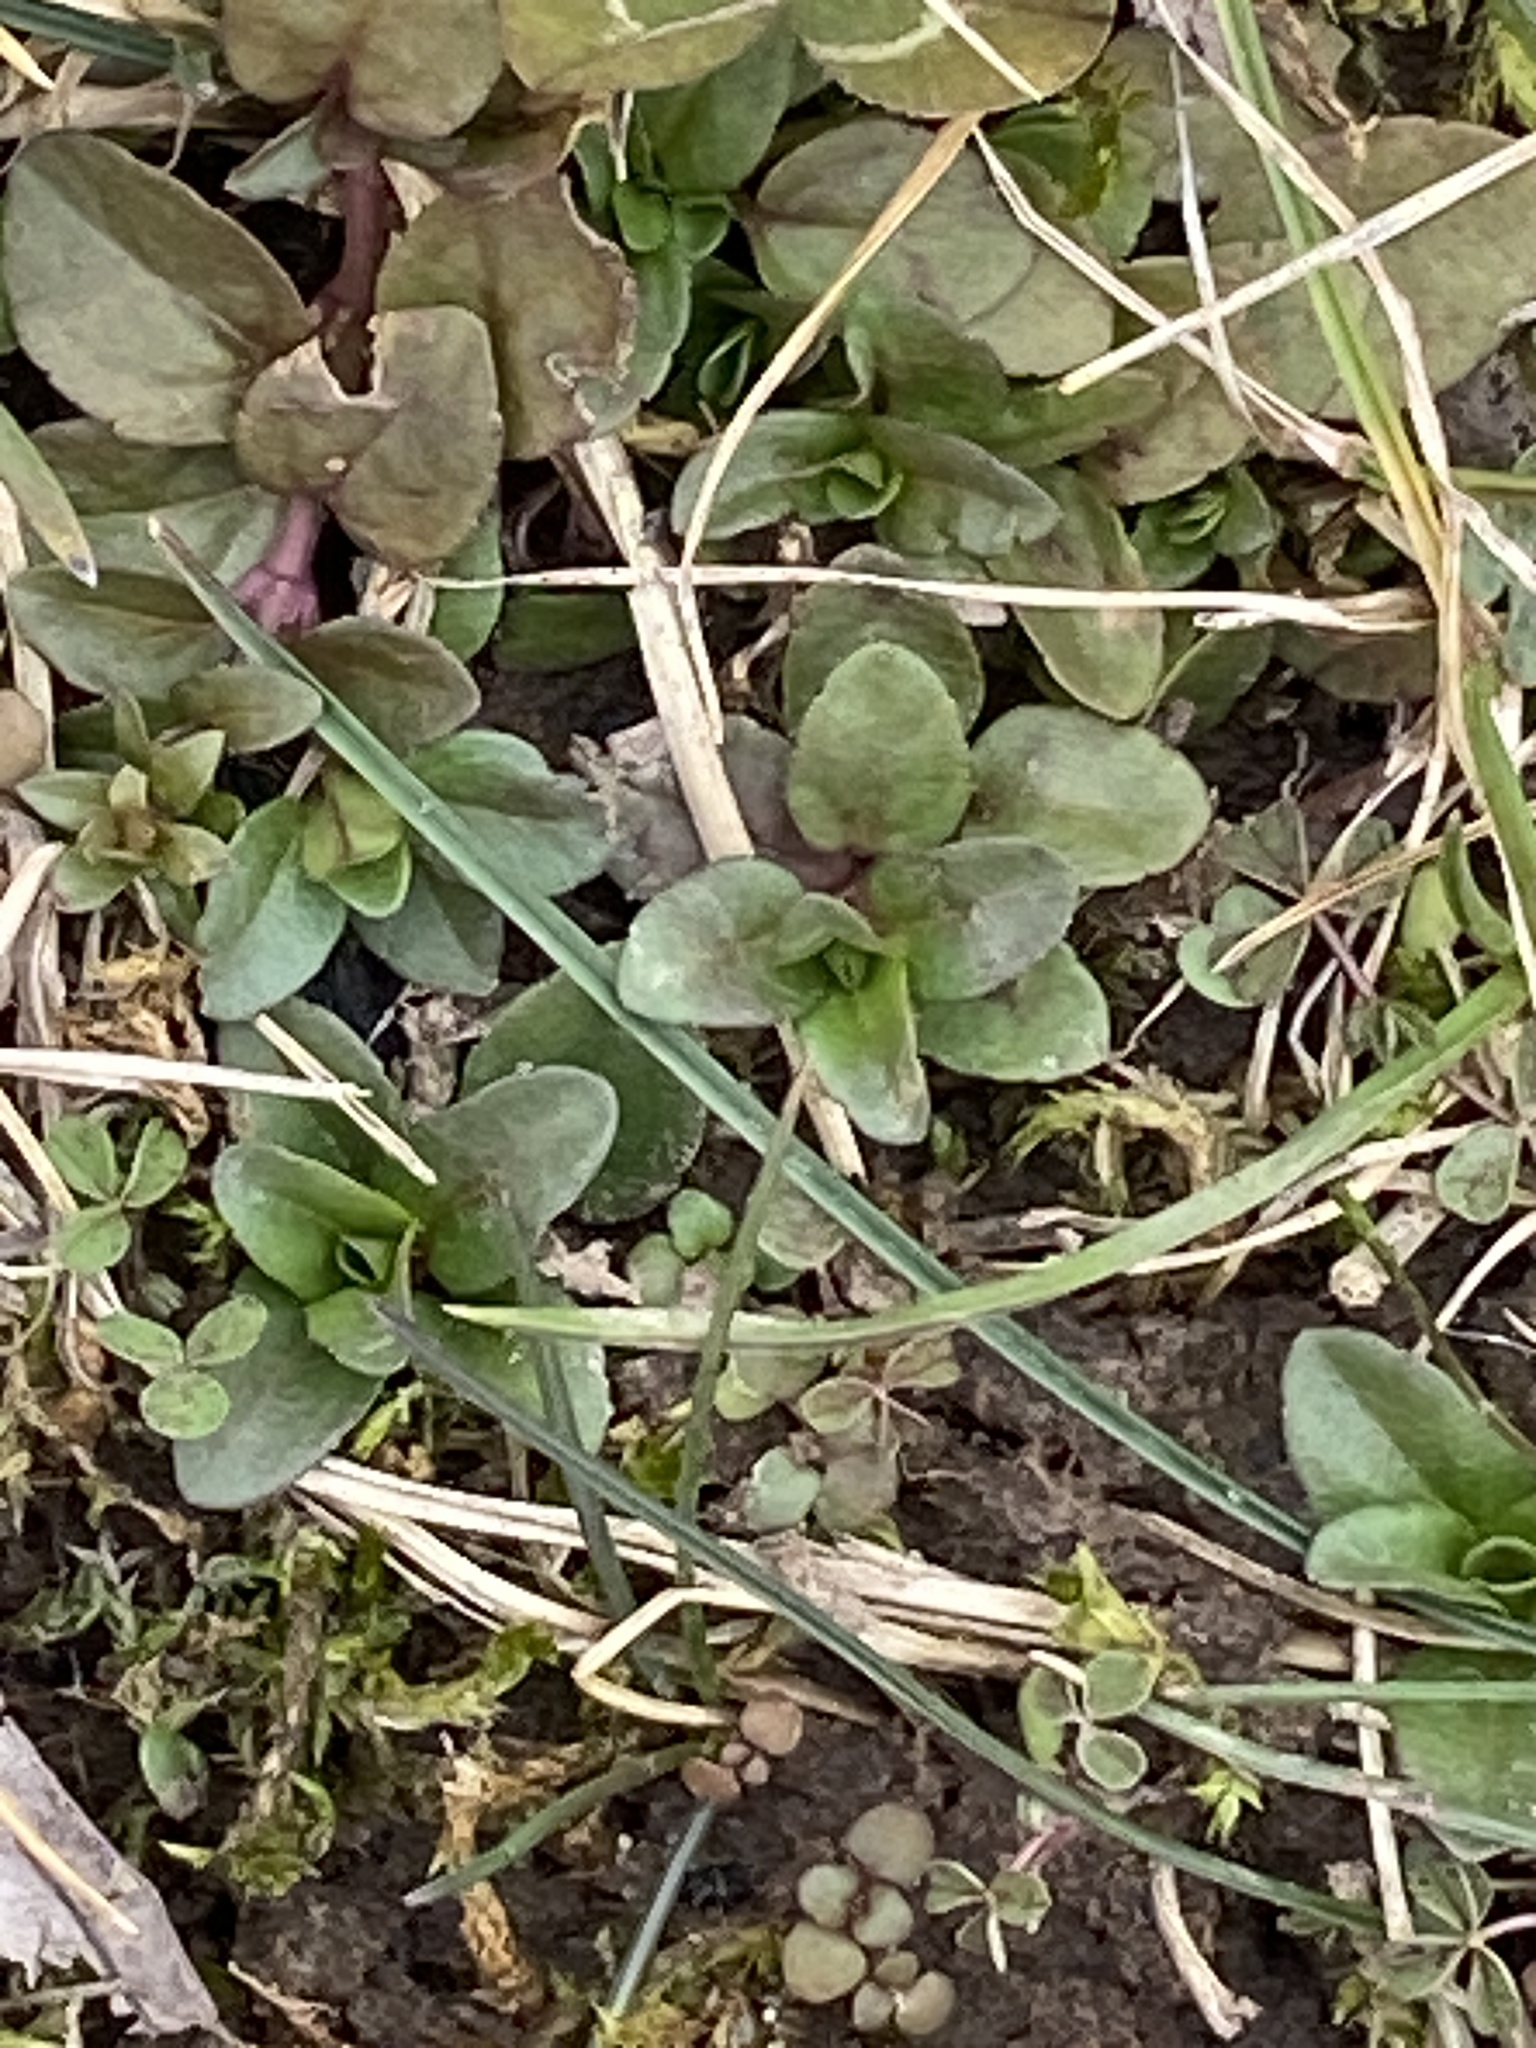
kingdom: Plantae
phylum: Tracheophyta
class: Magnoliopsida
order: Lamiales
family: Plantaginaceae
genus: Veronica
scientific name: Veronica serpyllifolia
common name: Thyme-leaved speedwell
